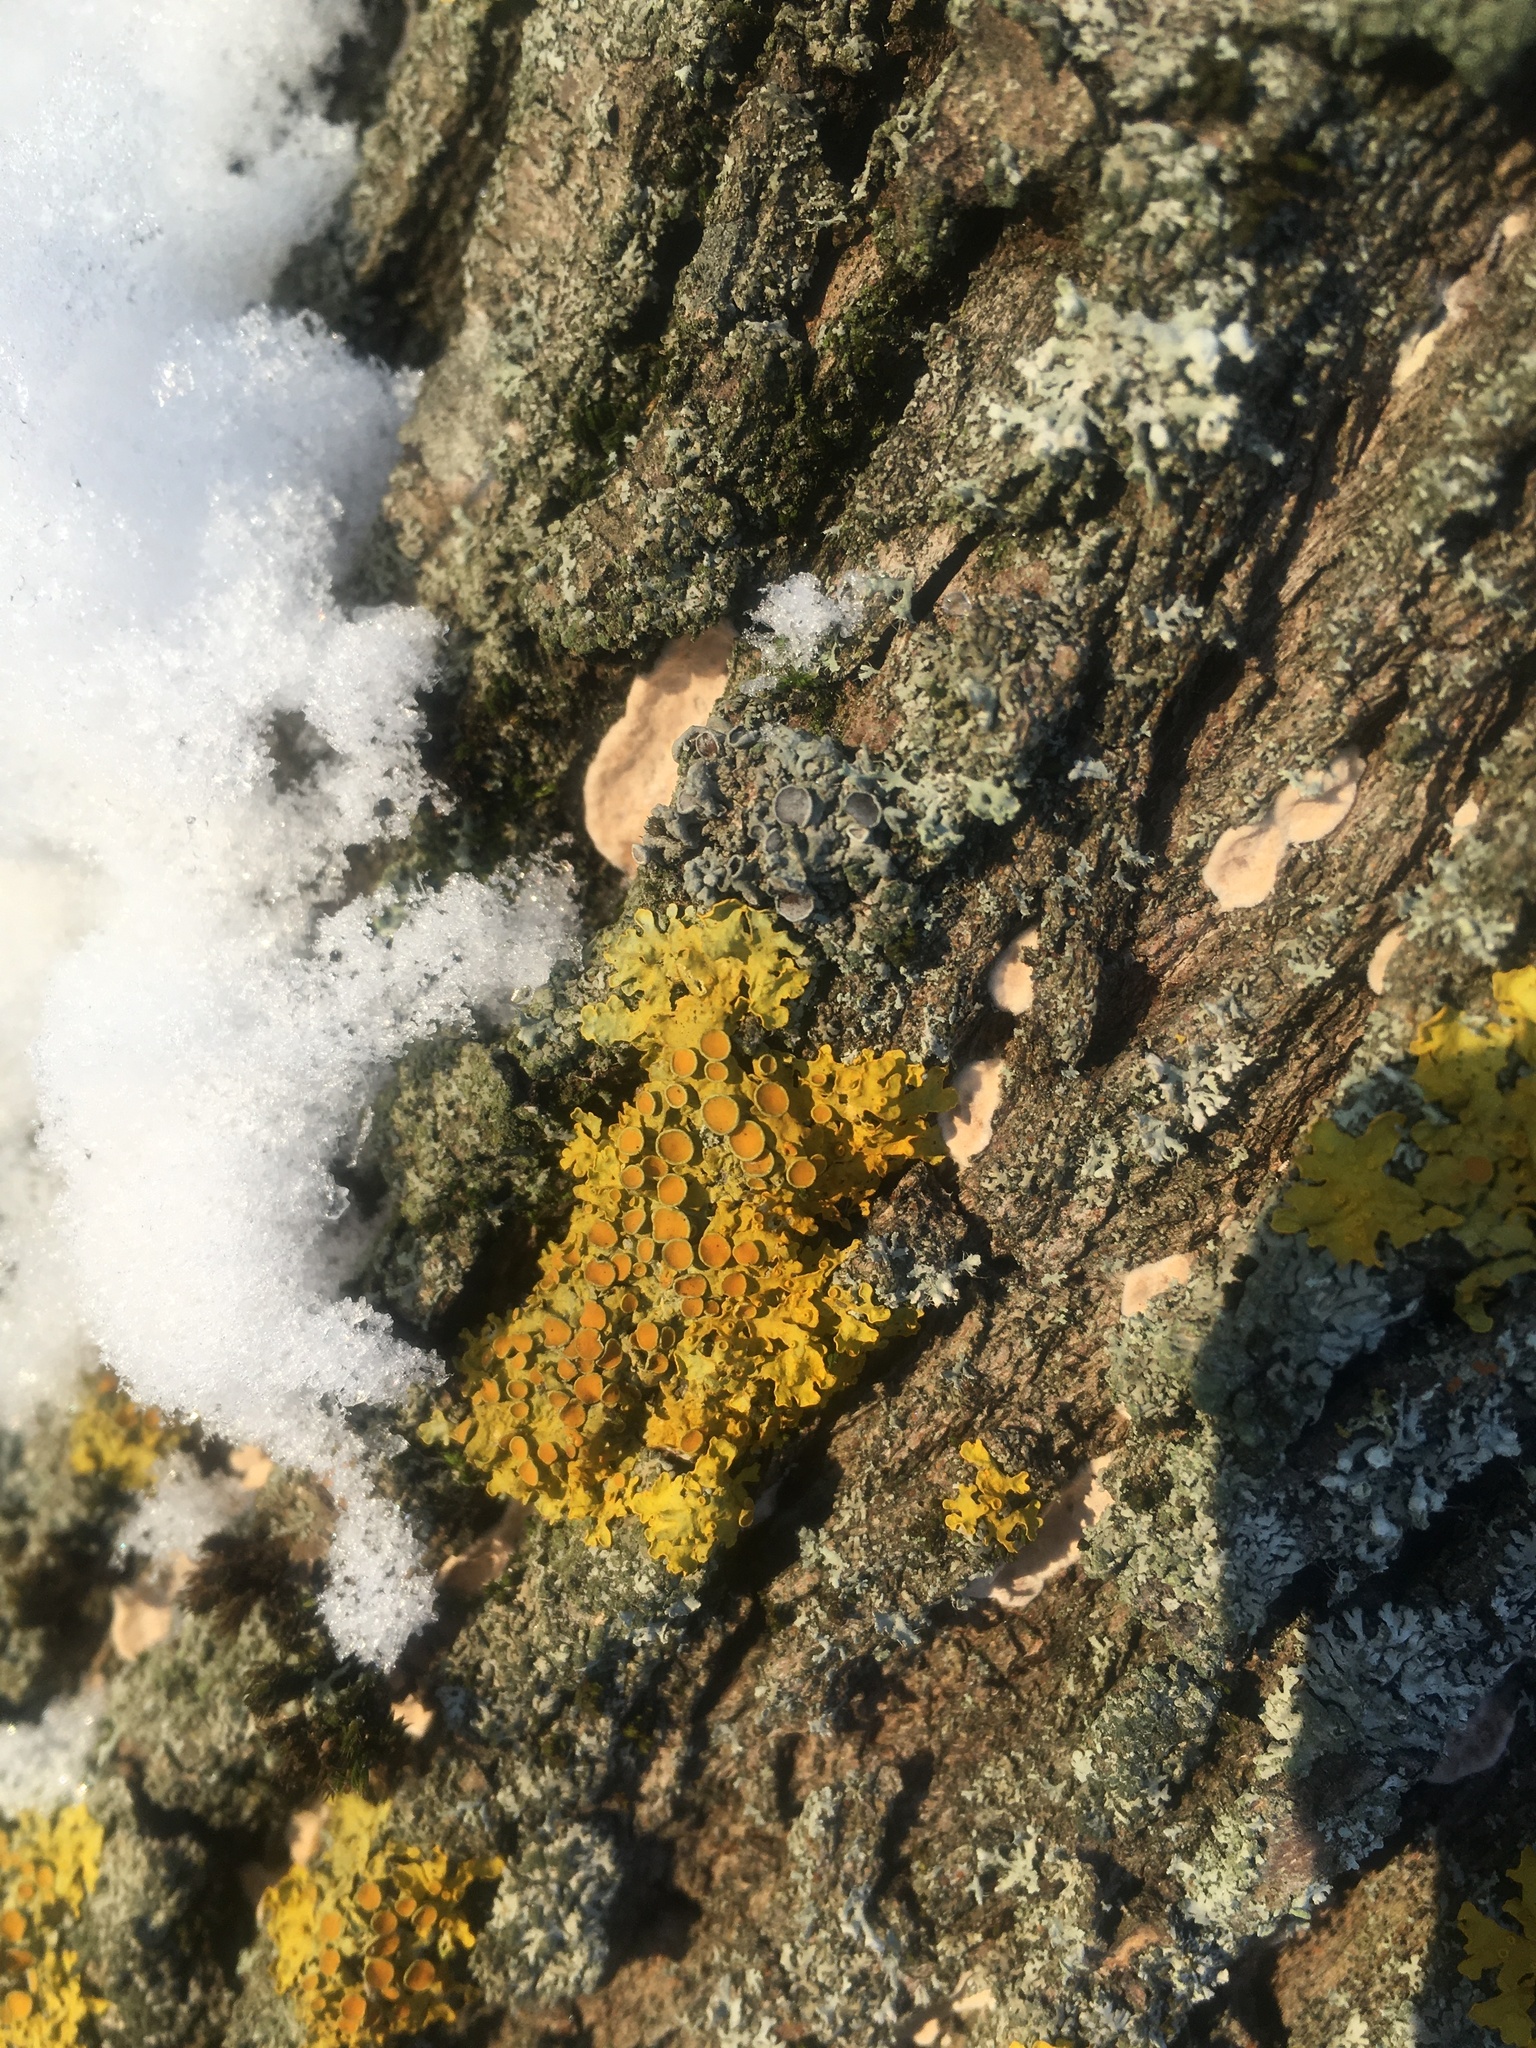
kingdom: Fungi
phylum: Ascomycota
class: Lecanoromycetes
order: Teloschistales
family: Teloschistaceae
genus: Xanthoria
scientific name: Xanthoria parietina
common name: Common orange lichen
